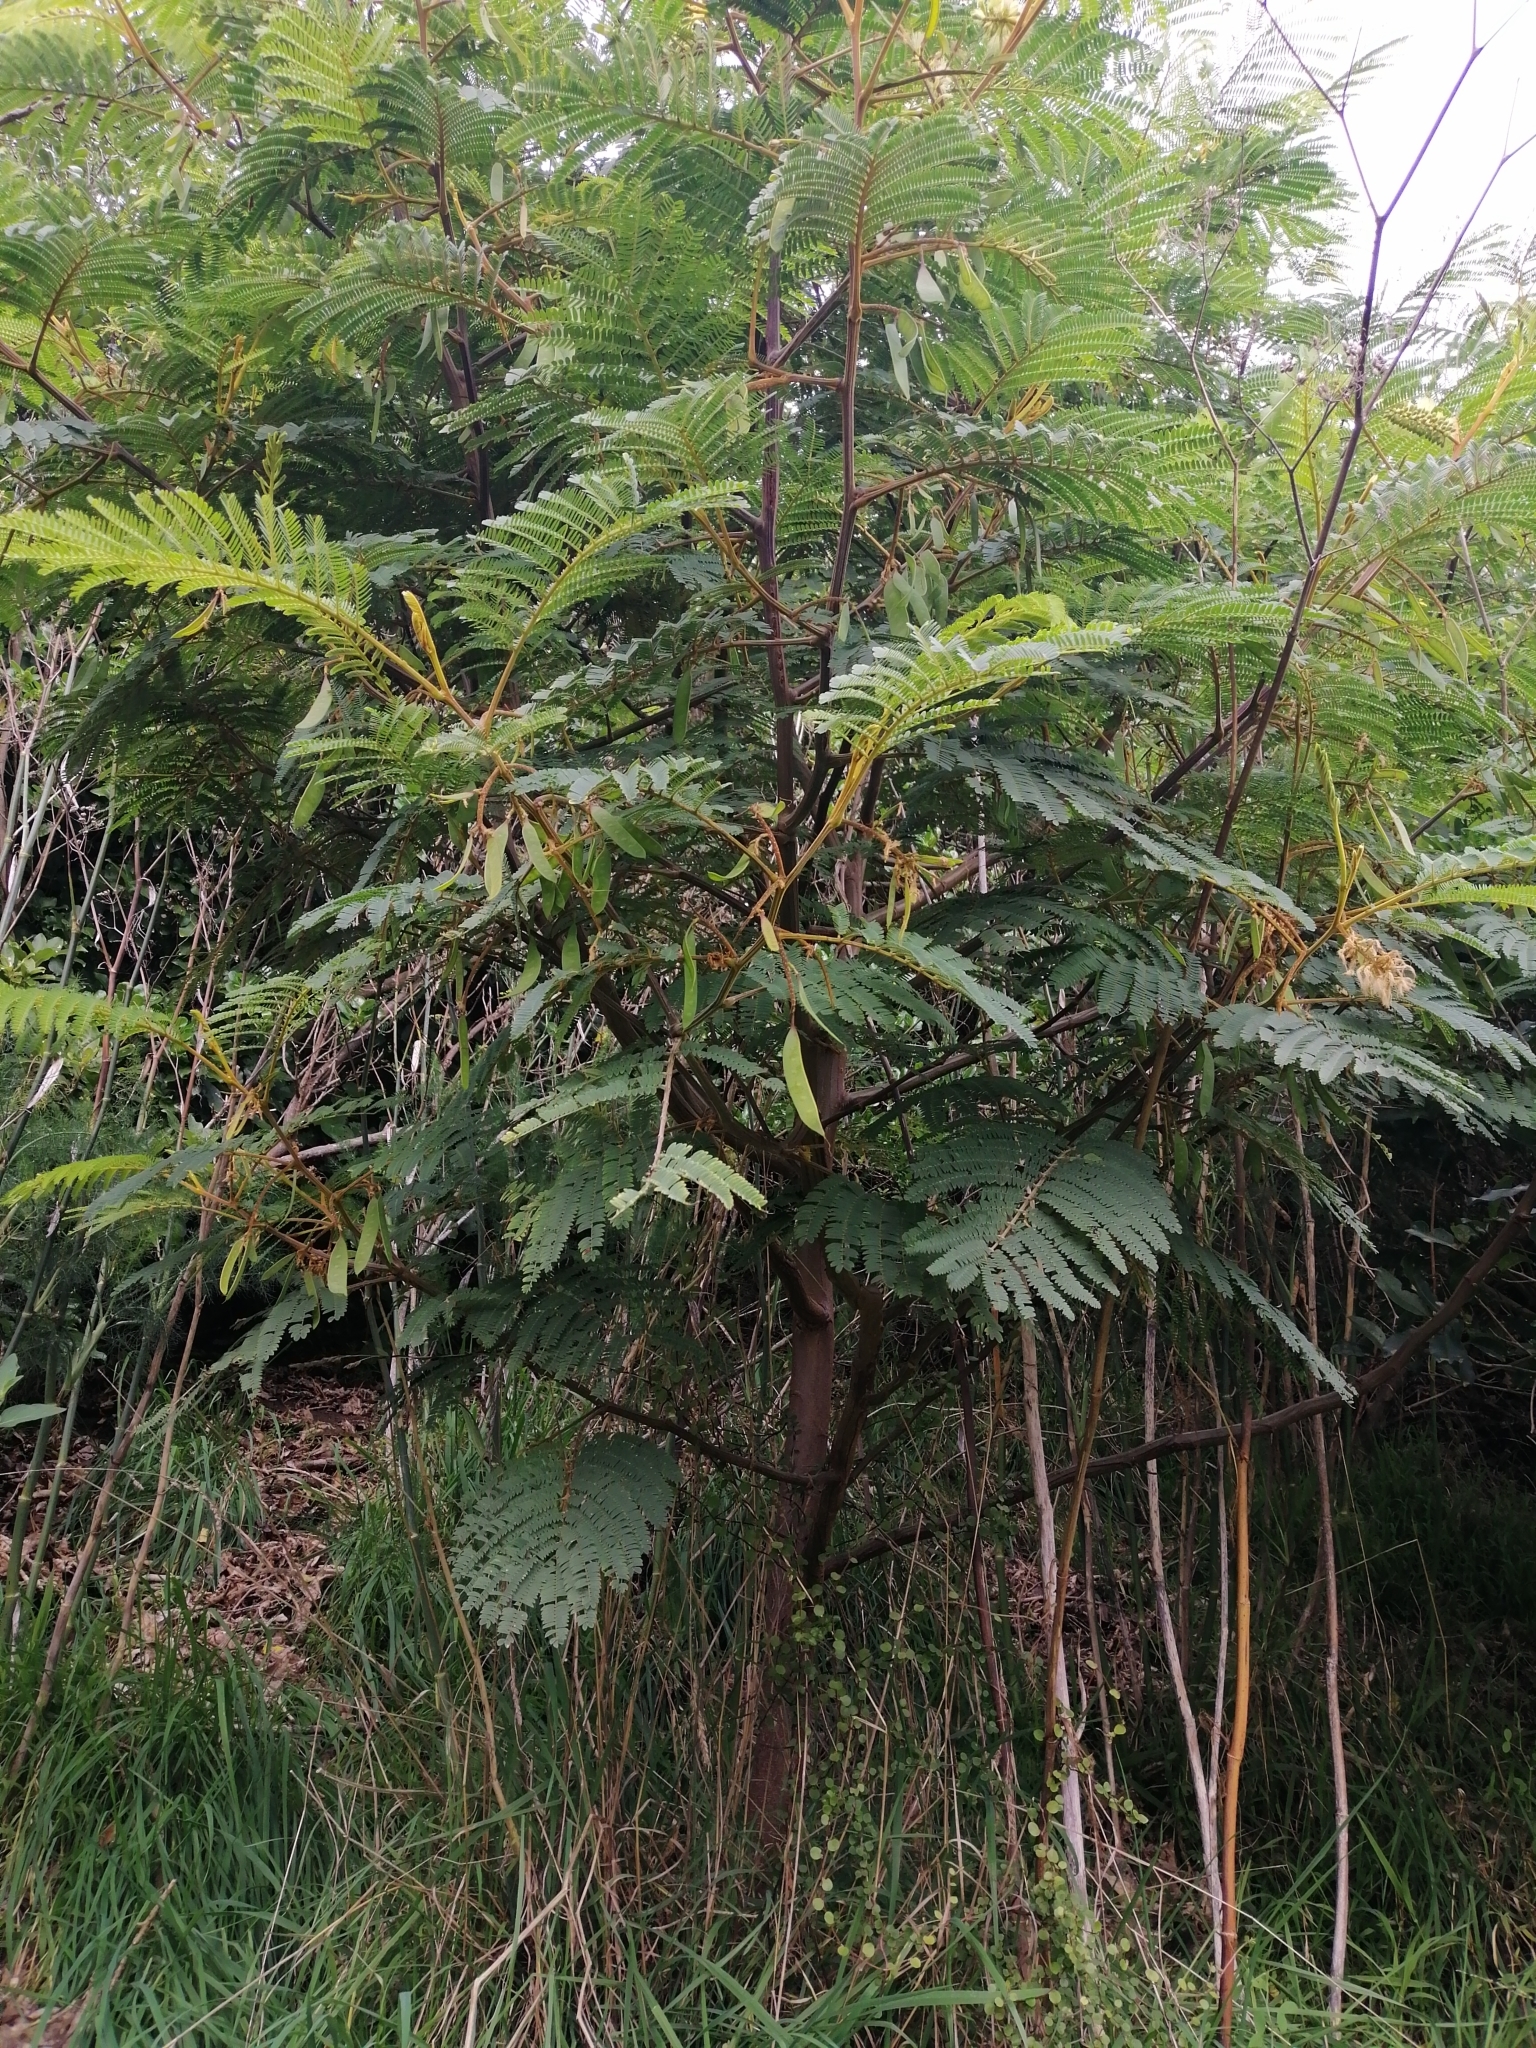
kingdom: Plantae
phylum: Tracheophyta
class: Magnoliopsida
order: Fabales
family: Fabaceae
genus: Paraserianthes
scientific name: Paraserianthes lophantha
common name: Plume albizia
